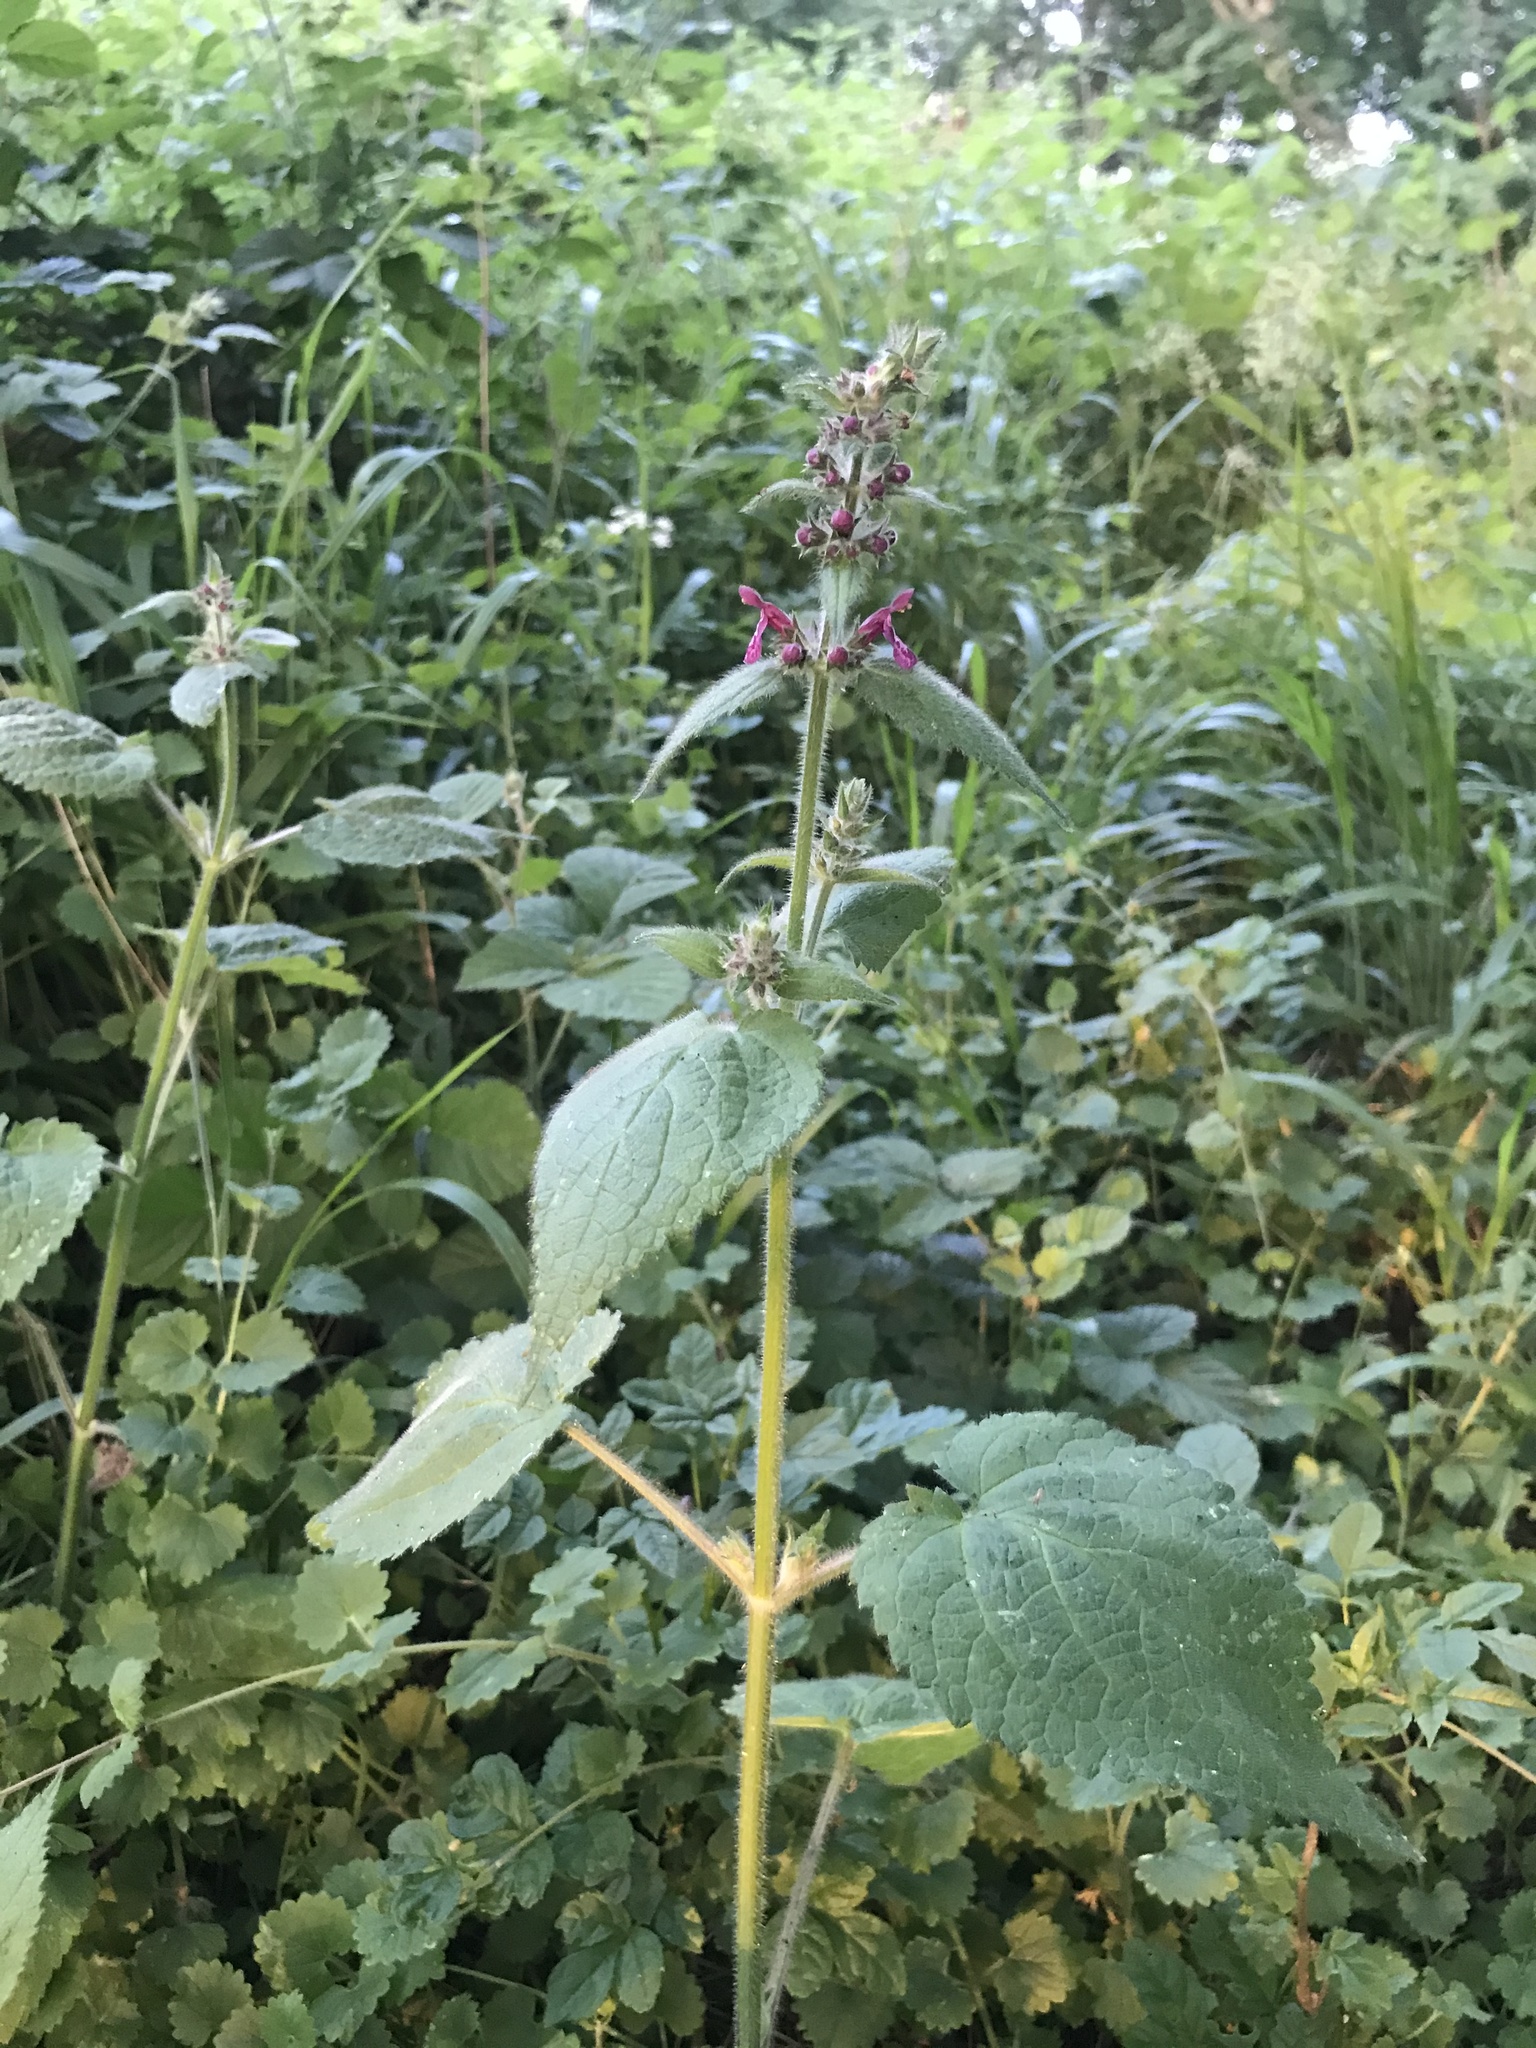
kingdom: Plantae
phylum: Tracheophyta
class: Magnoliopsida
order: Lamiales
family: Lamiaceae
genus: Stachys
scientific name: Stachys sylvatica
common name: Hedge woundwort
